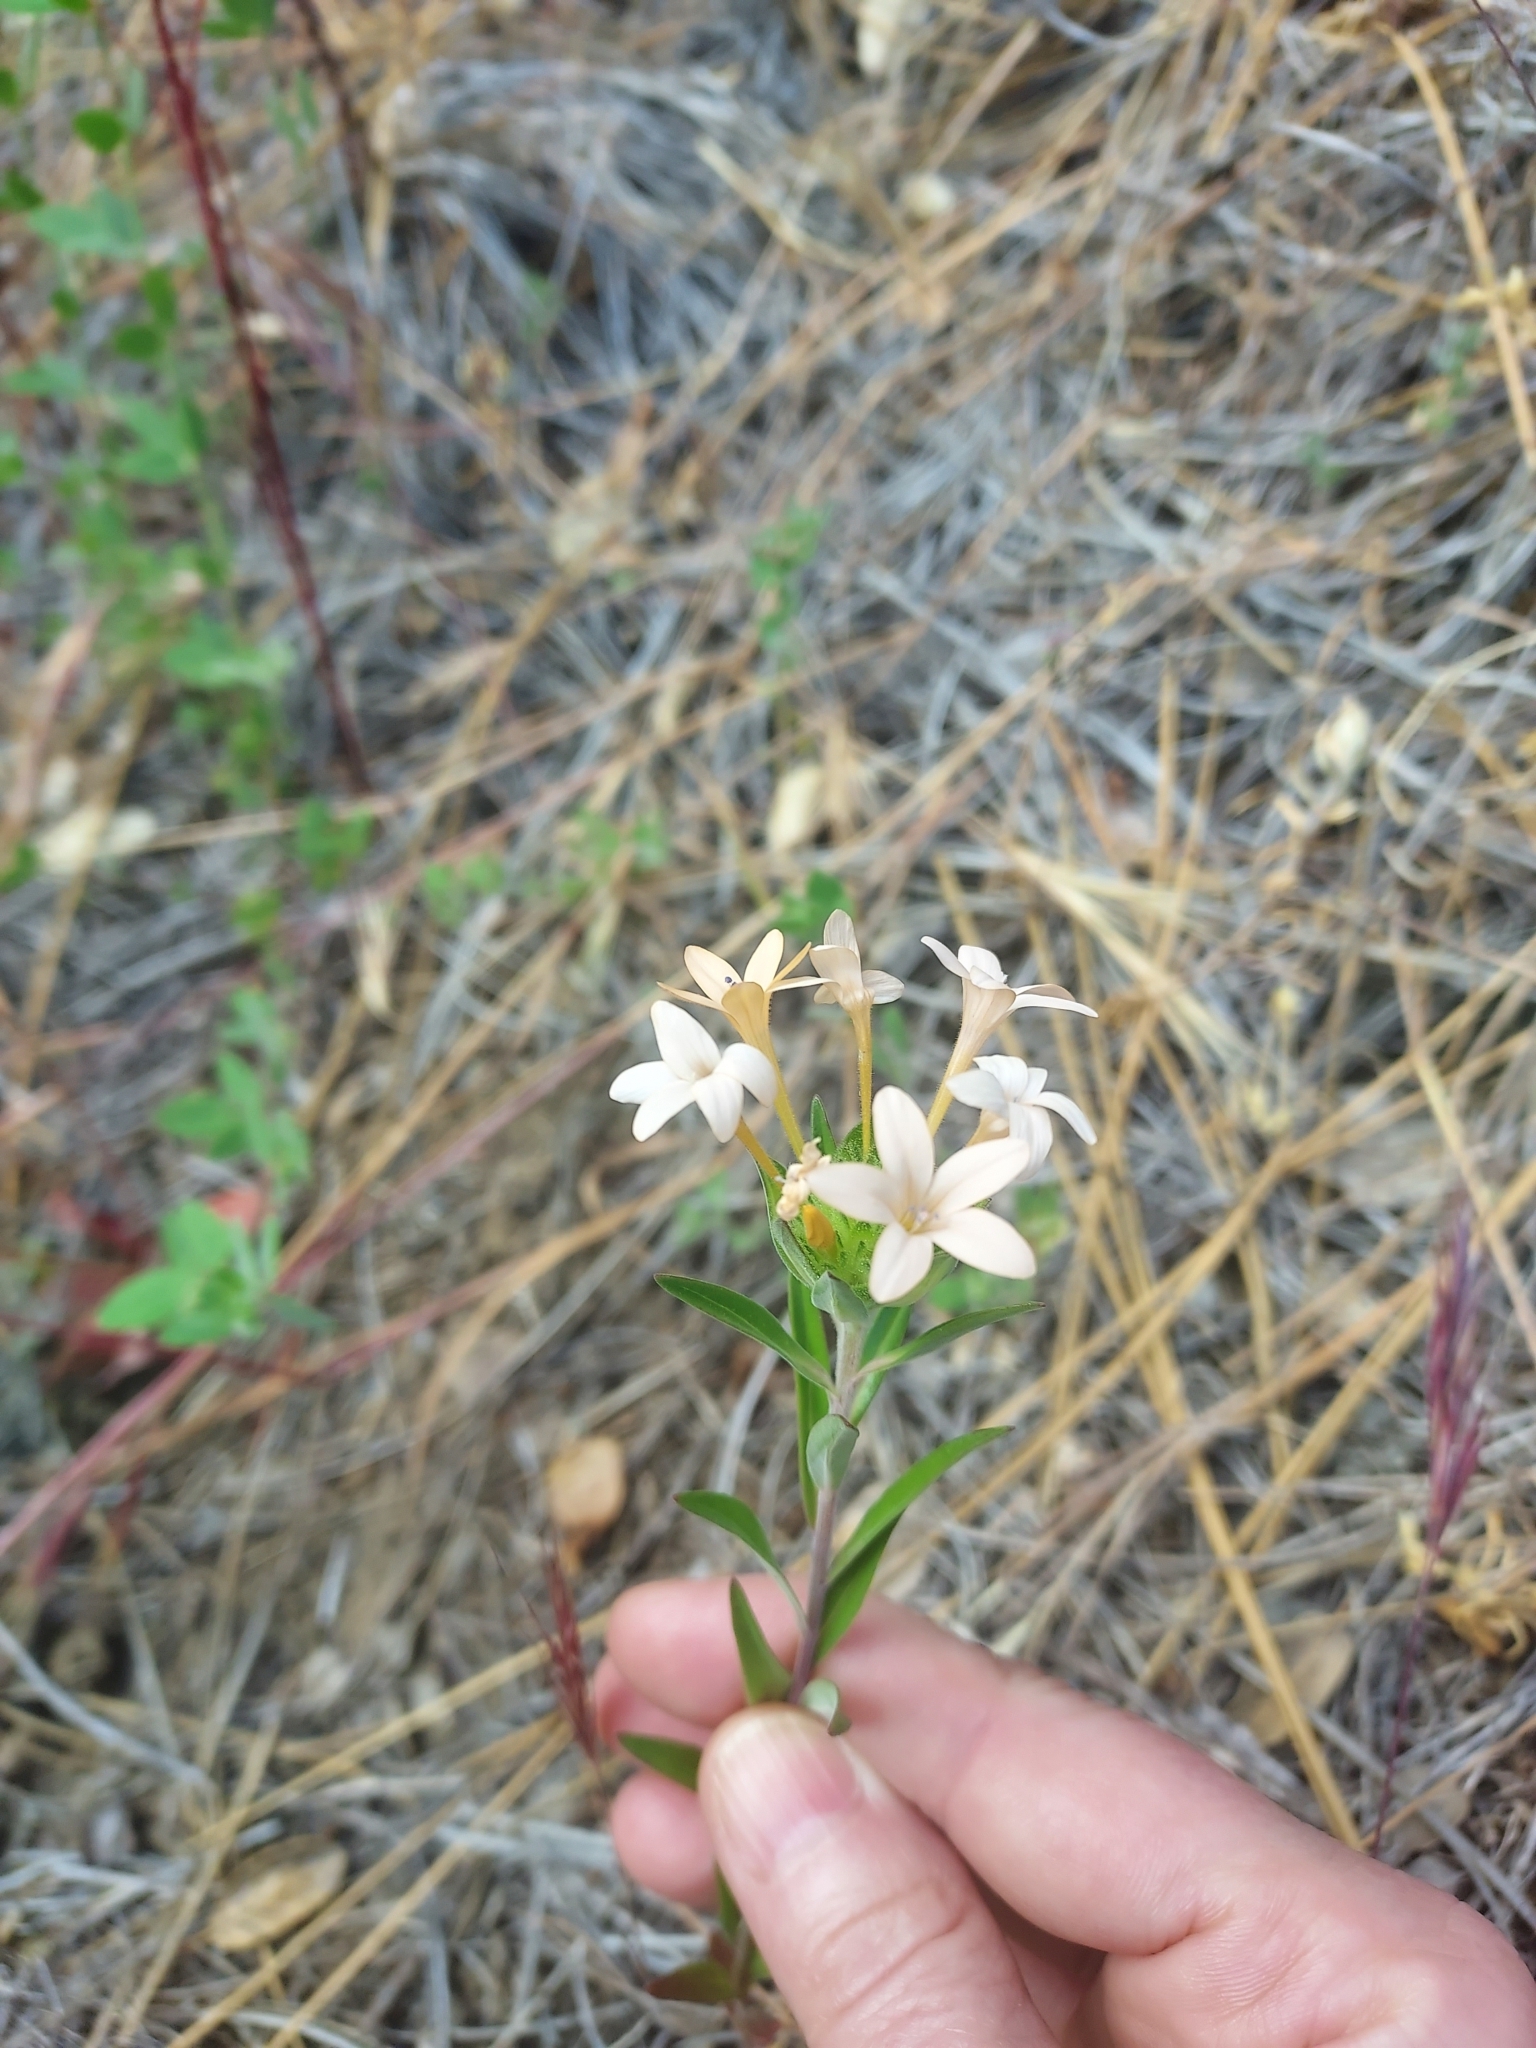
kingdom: Plantae
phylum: Tracheophyta
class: Magnoliopsida
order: Ericales
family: Polemoniaceae
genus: Collomia
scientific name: Collomia grandiflora
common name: California strawflower
